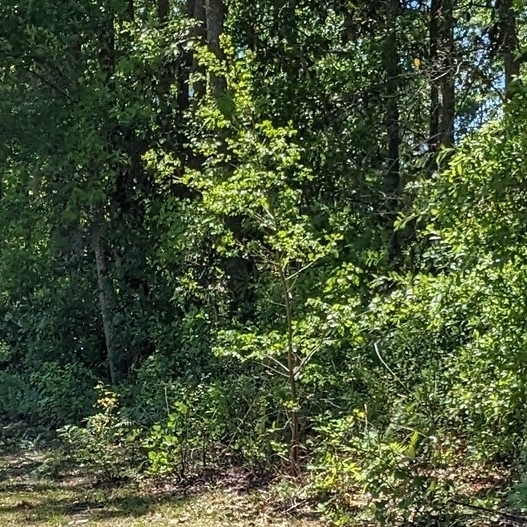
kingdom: Plantae
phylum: Tracheophyta
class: Magnoliopsida
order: Ericales
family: Ebenaceae
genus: Diospyros
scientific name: Diospyros virginiana
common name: Persimmon
